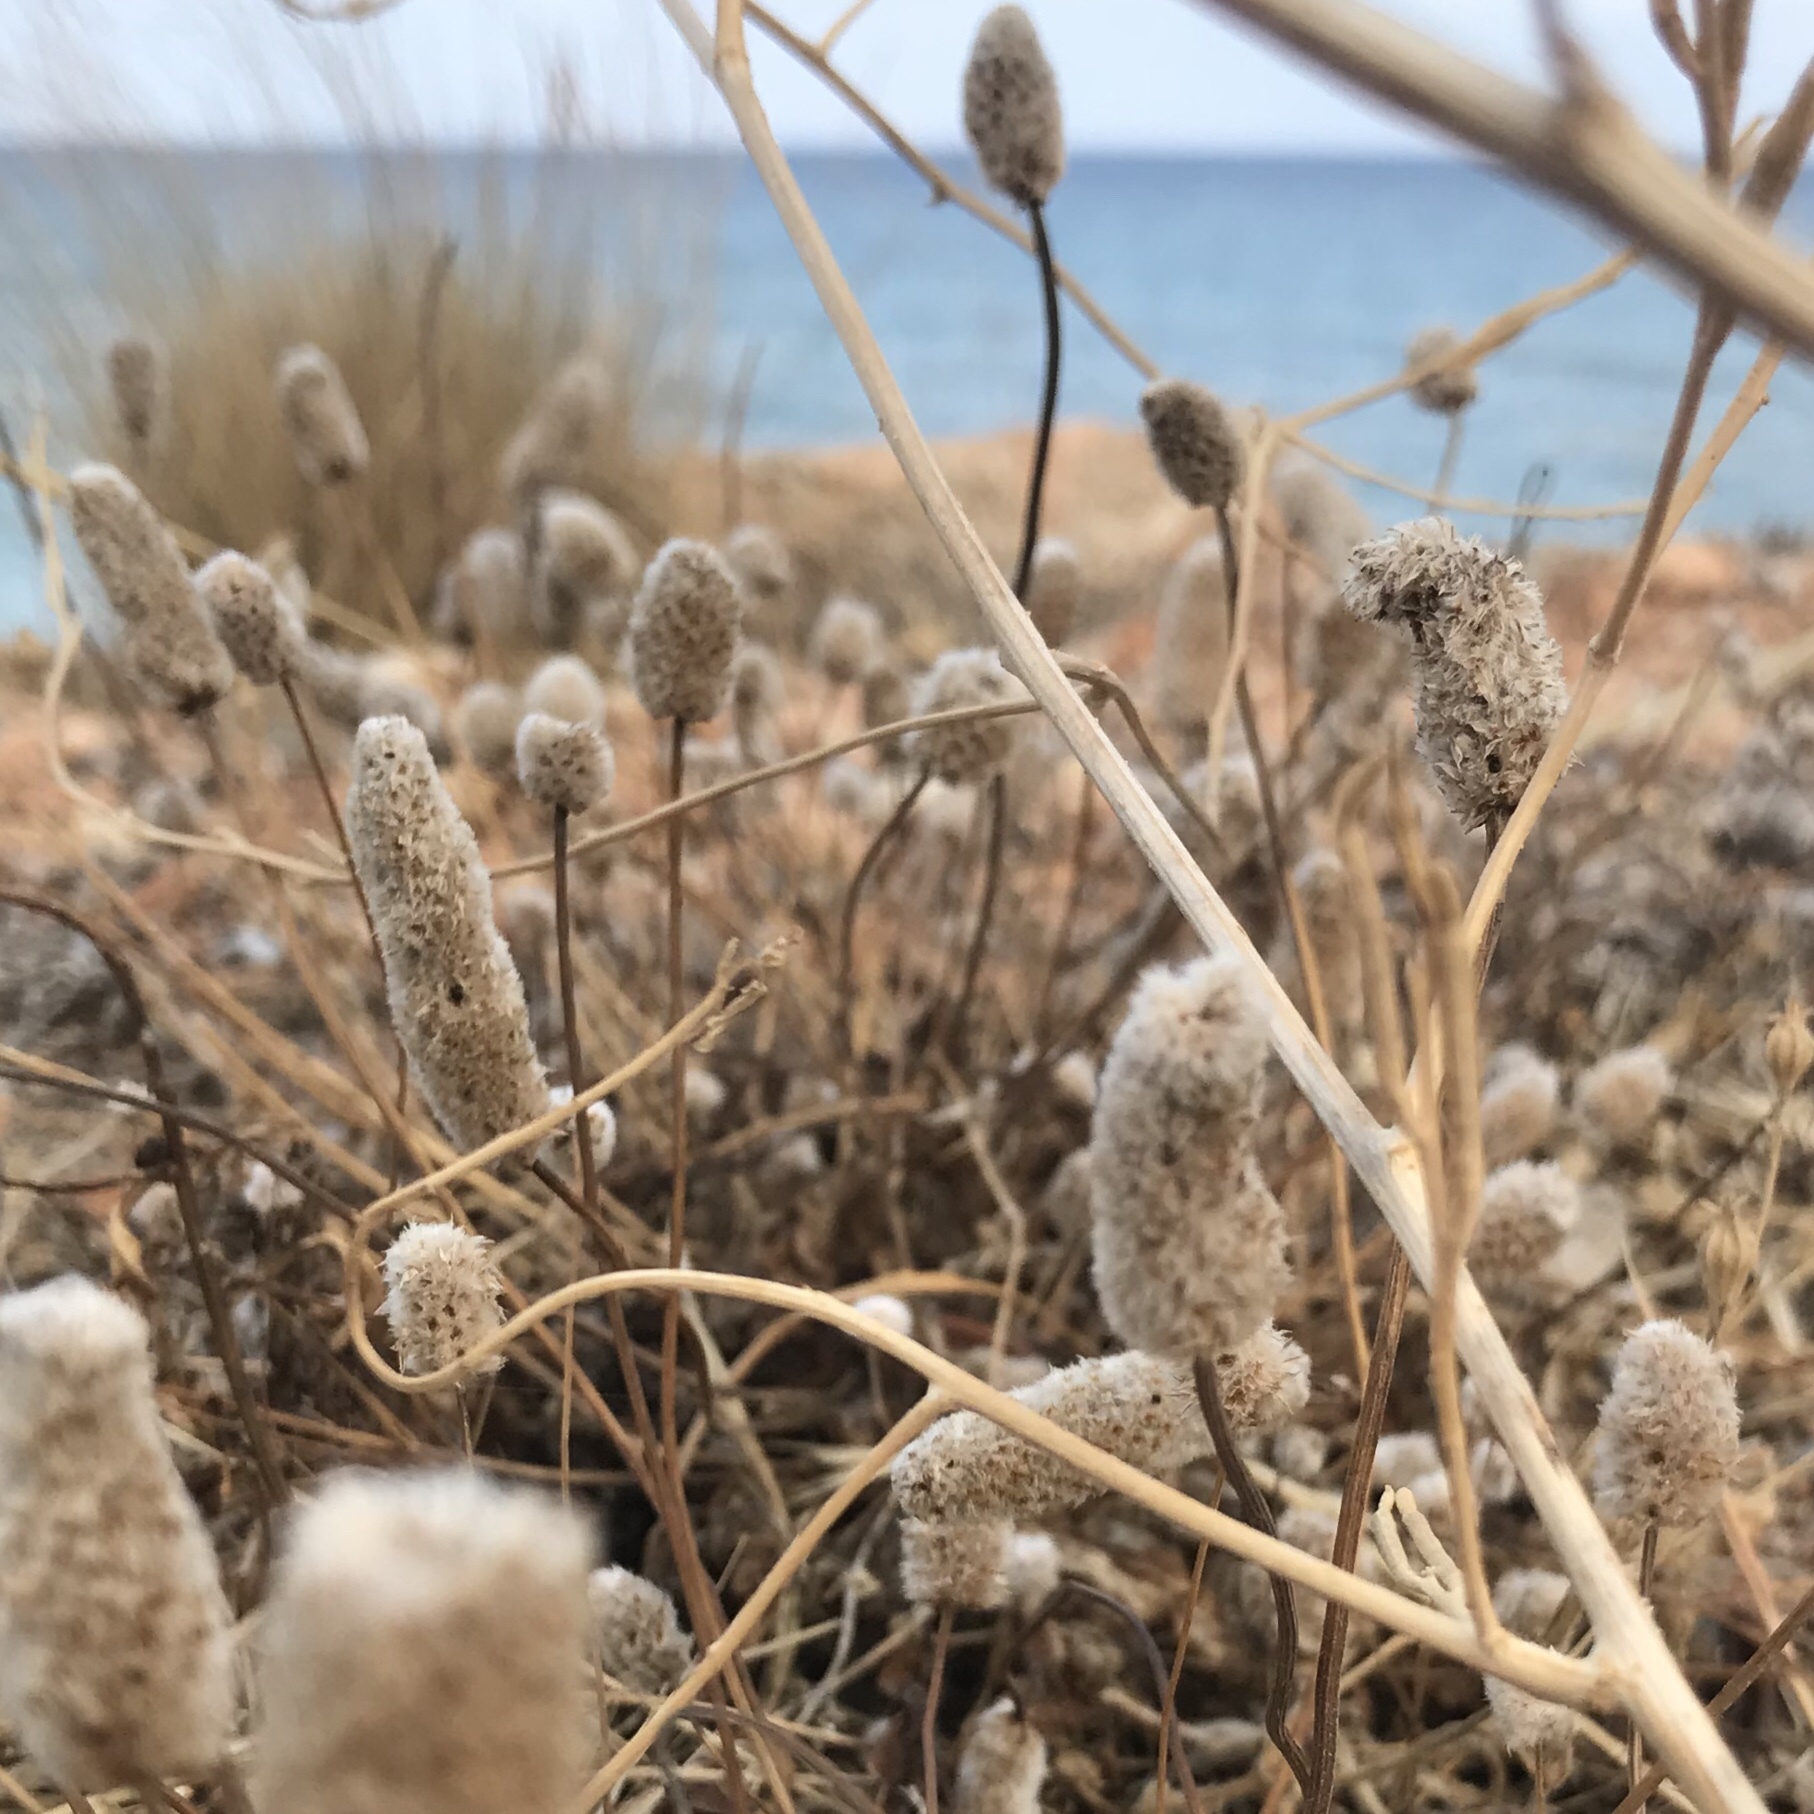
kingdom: Plantae
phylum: Tracheophyta
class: Magnoliopsida
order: Lamiales
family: Plantaginaceae
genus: Plantago
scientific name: Plantago lagopus
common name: Hare-foot plantain
